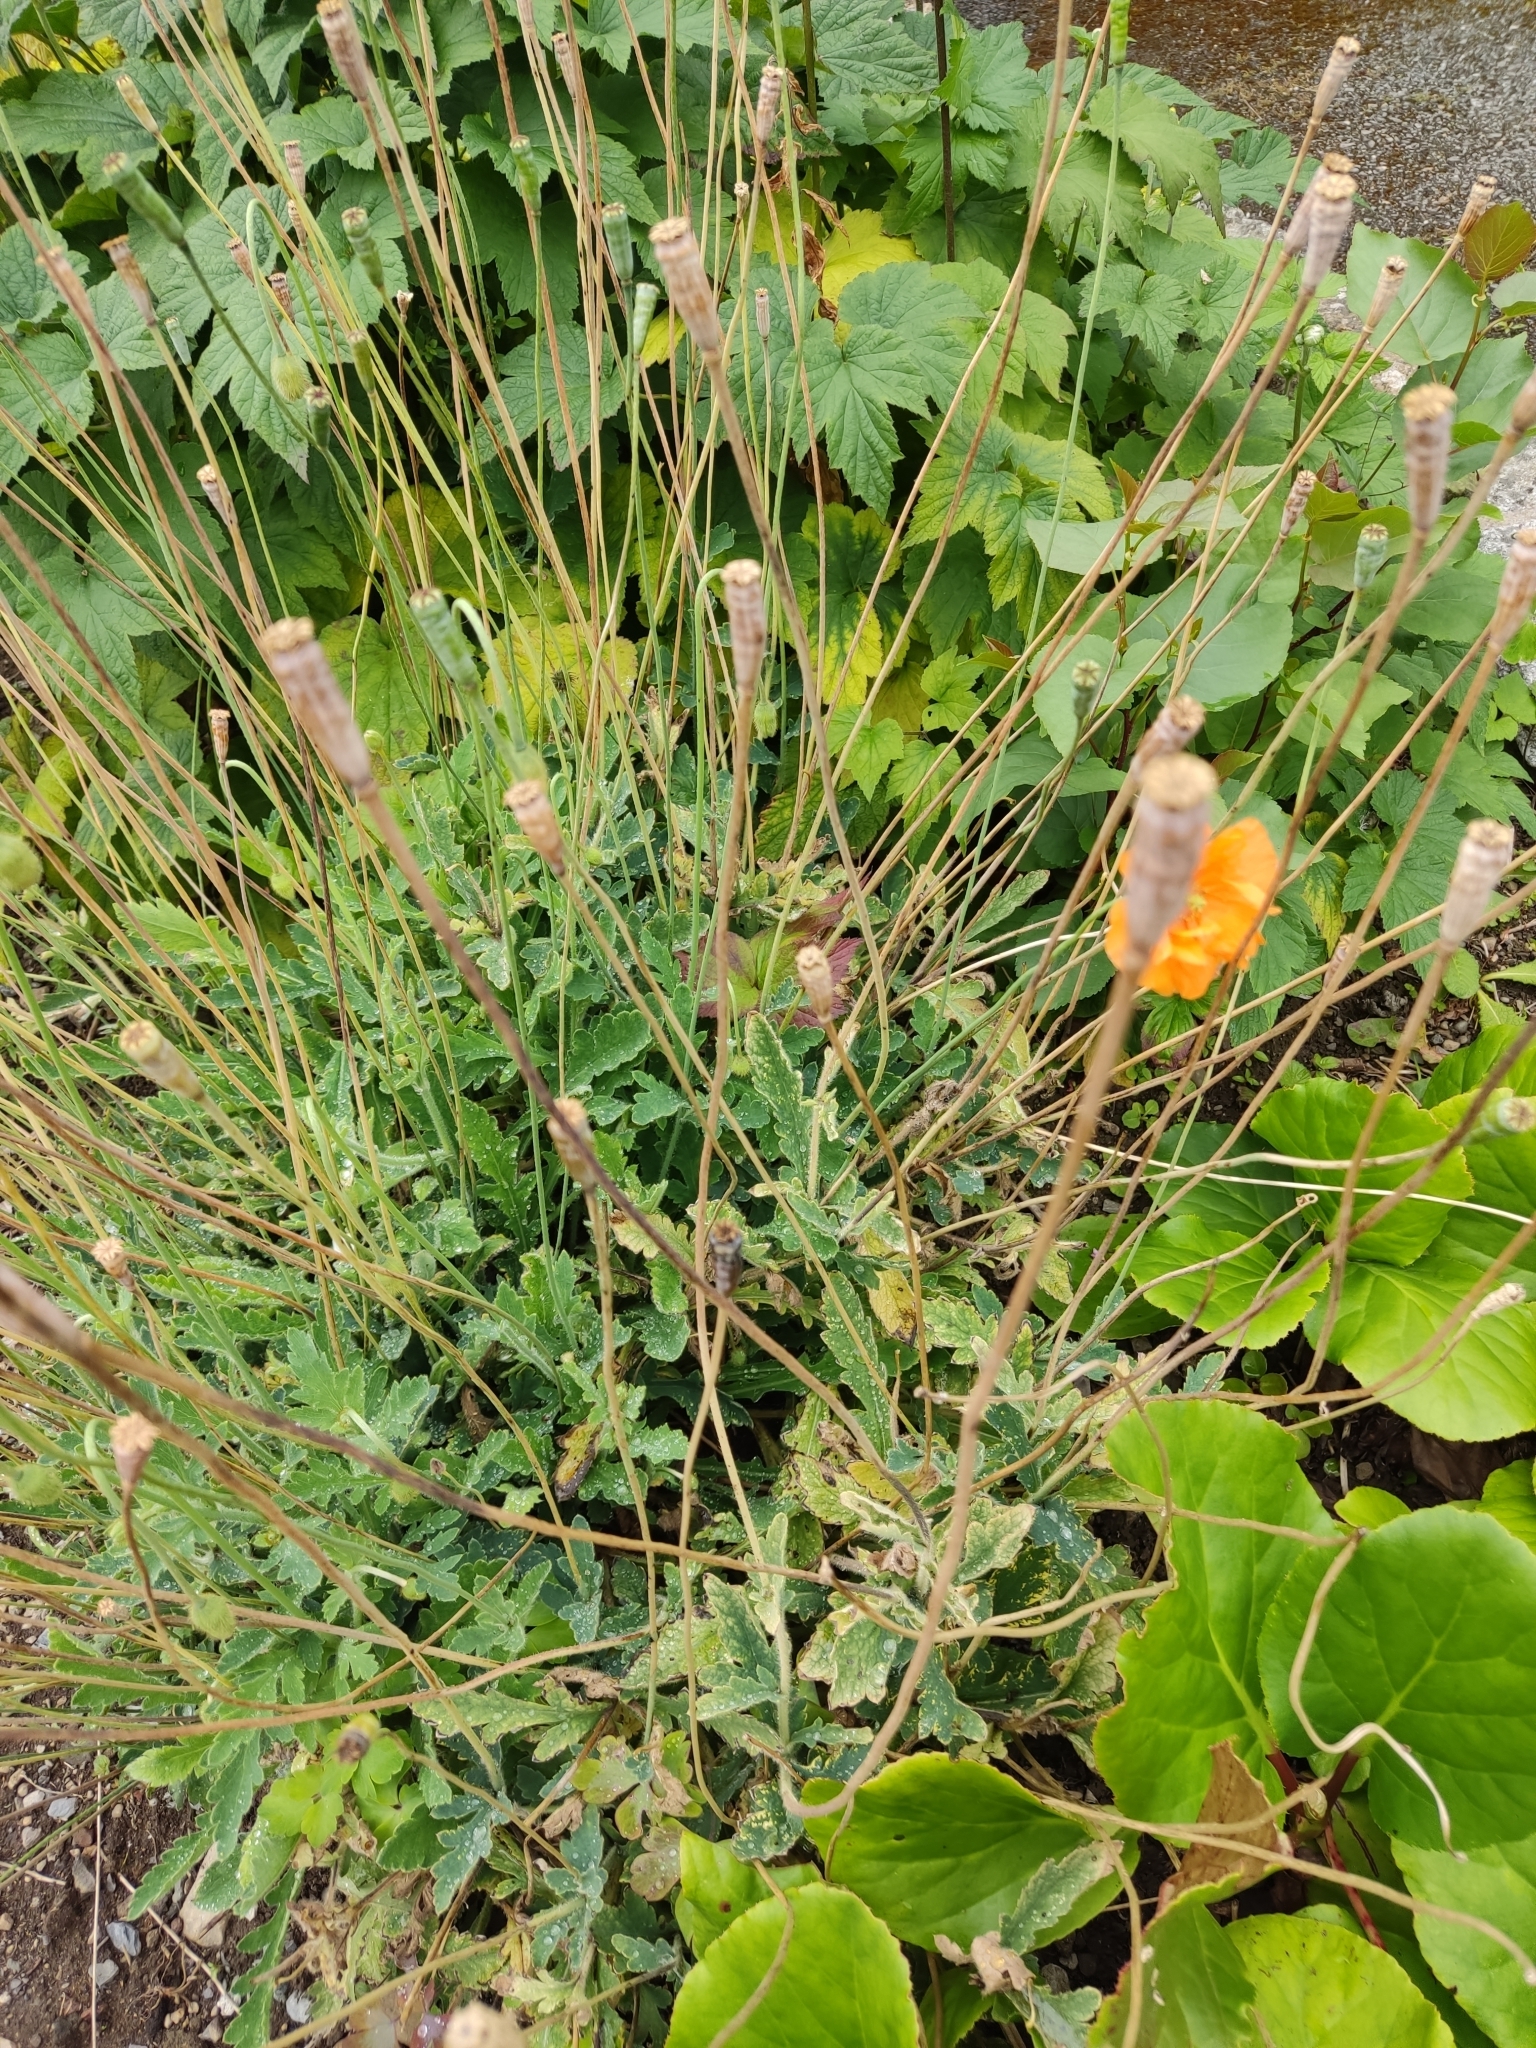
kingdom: Plantae
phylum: Tracheophyta
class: Magnoliopsida
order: Ranunculales
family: Papaveraceae
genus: Papaver
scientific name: Papaver cambricum
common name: Poppy
